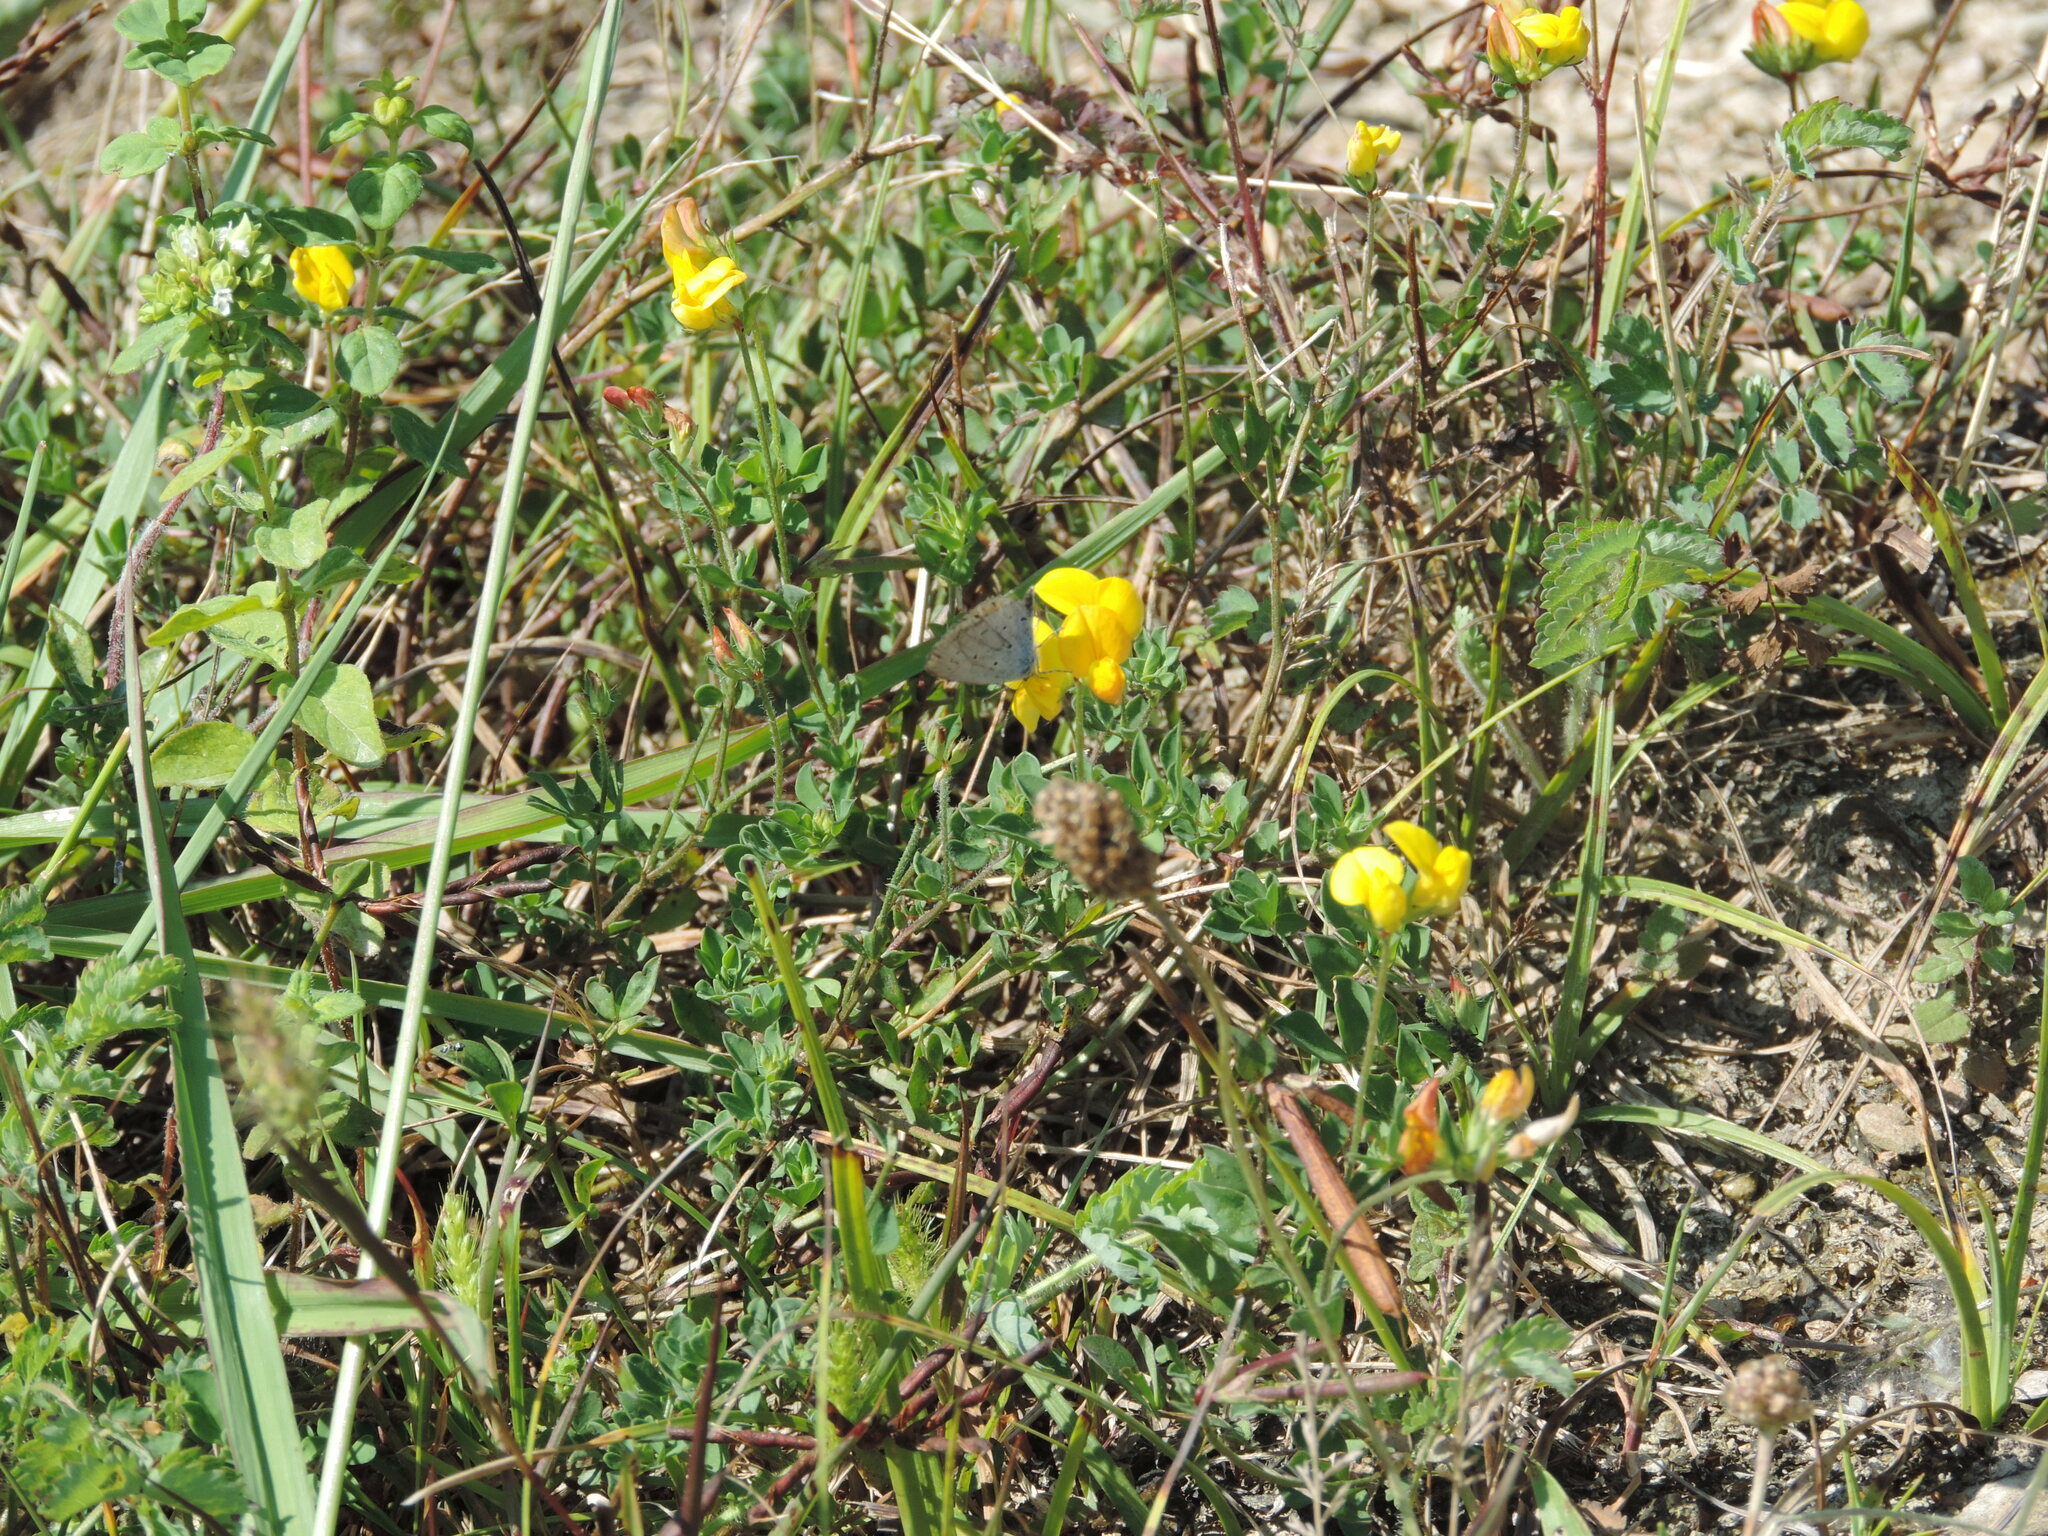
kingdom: Animalia
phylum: Arthropoda
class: Insecta
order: Lepidoptera
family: Lycaenidae
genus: Elkalyce
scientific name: Elkalyce argiades
